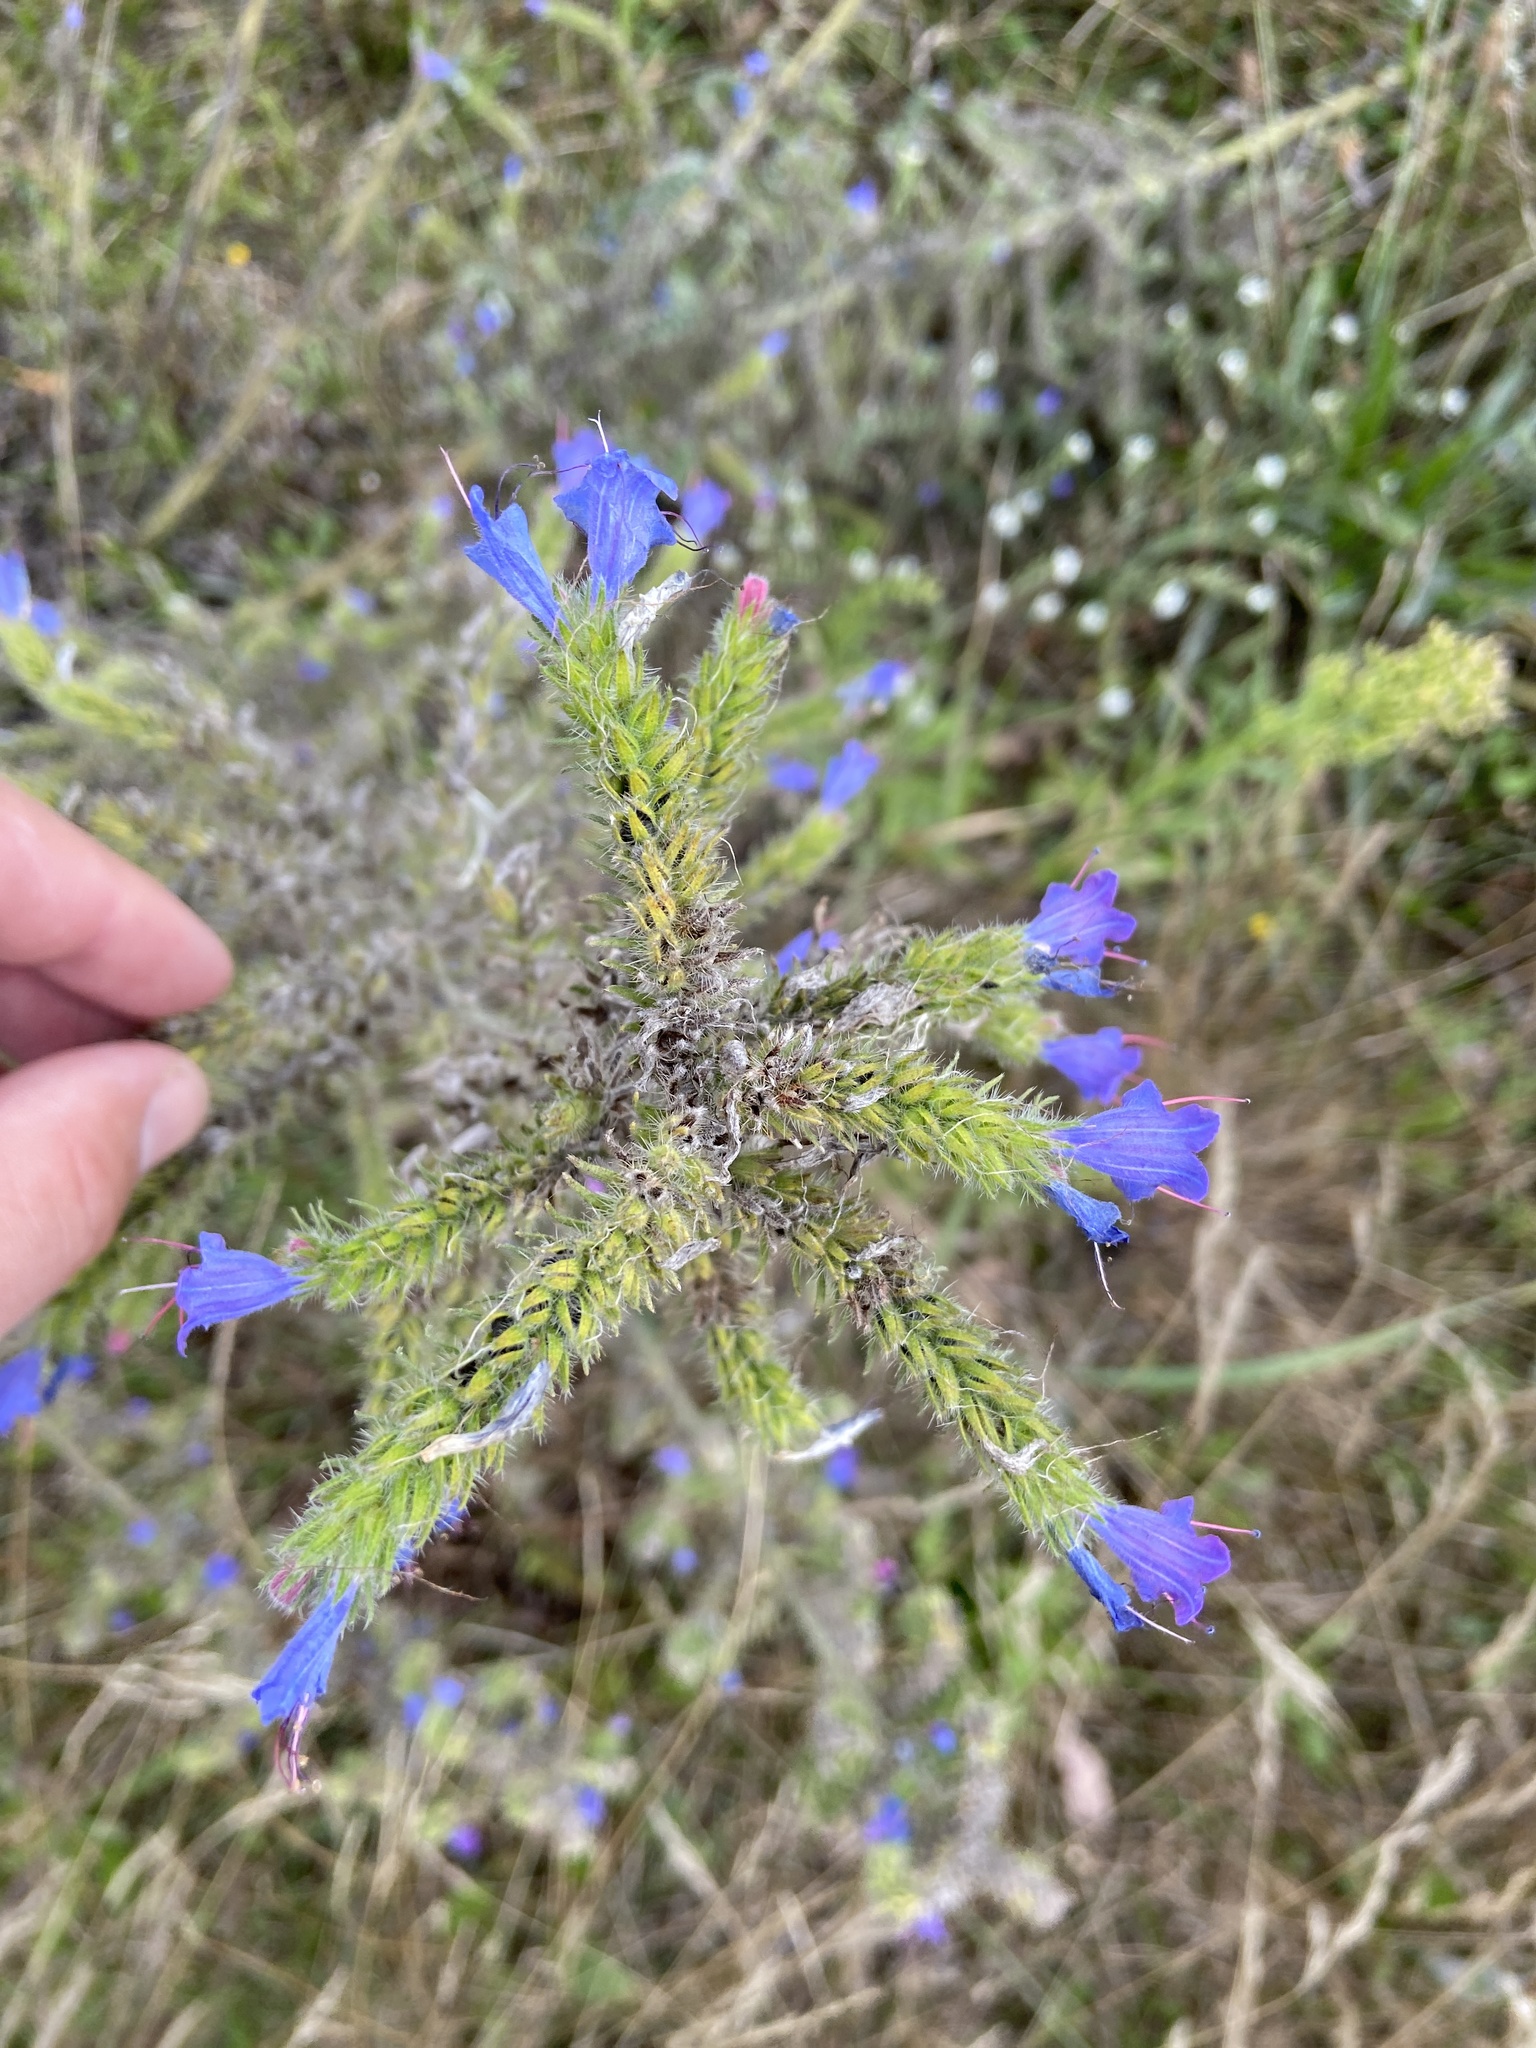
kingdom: Plantae
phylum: Tracheophyta
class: Magnoliopsida
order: Boraginales
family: Boraginaceae
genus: Echium
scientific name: Echium vulgare
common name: Common viper's bugloss
